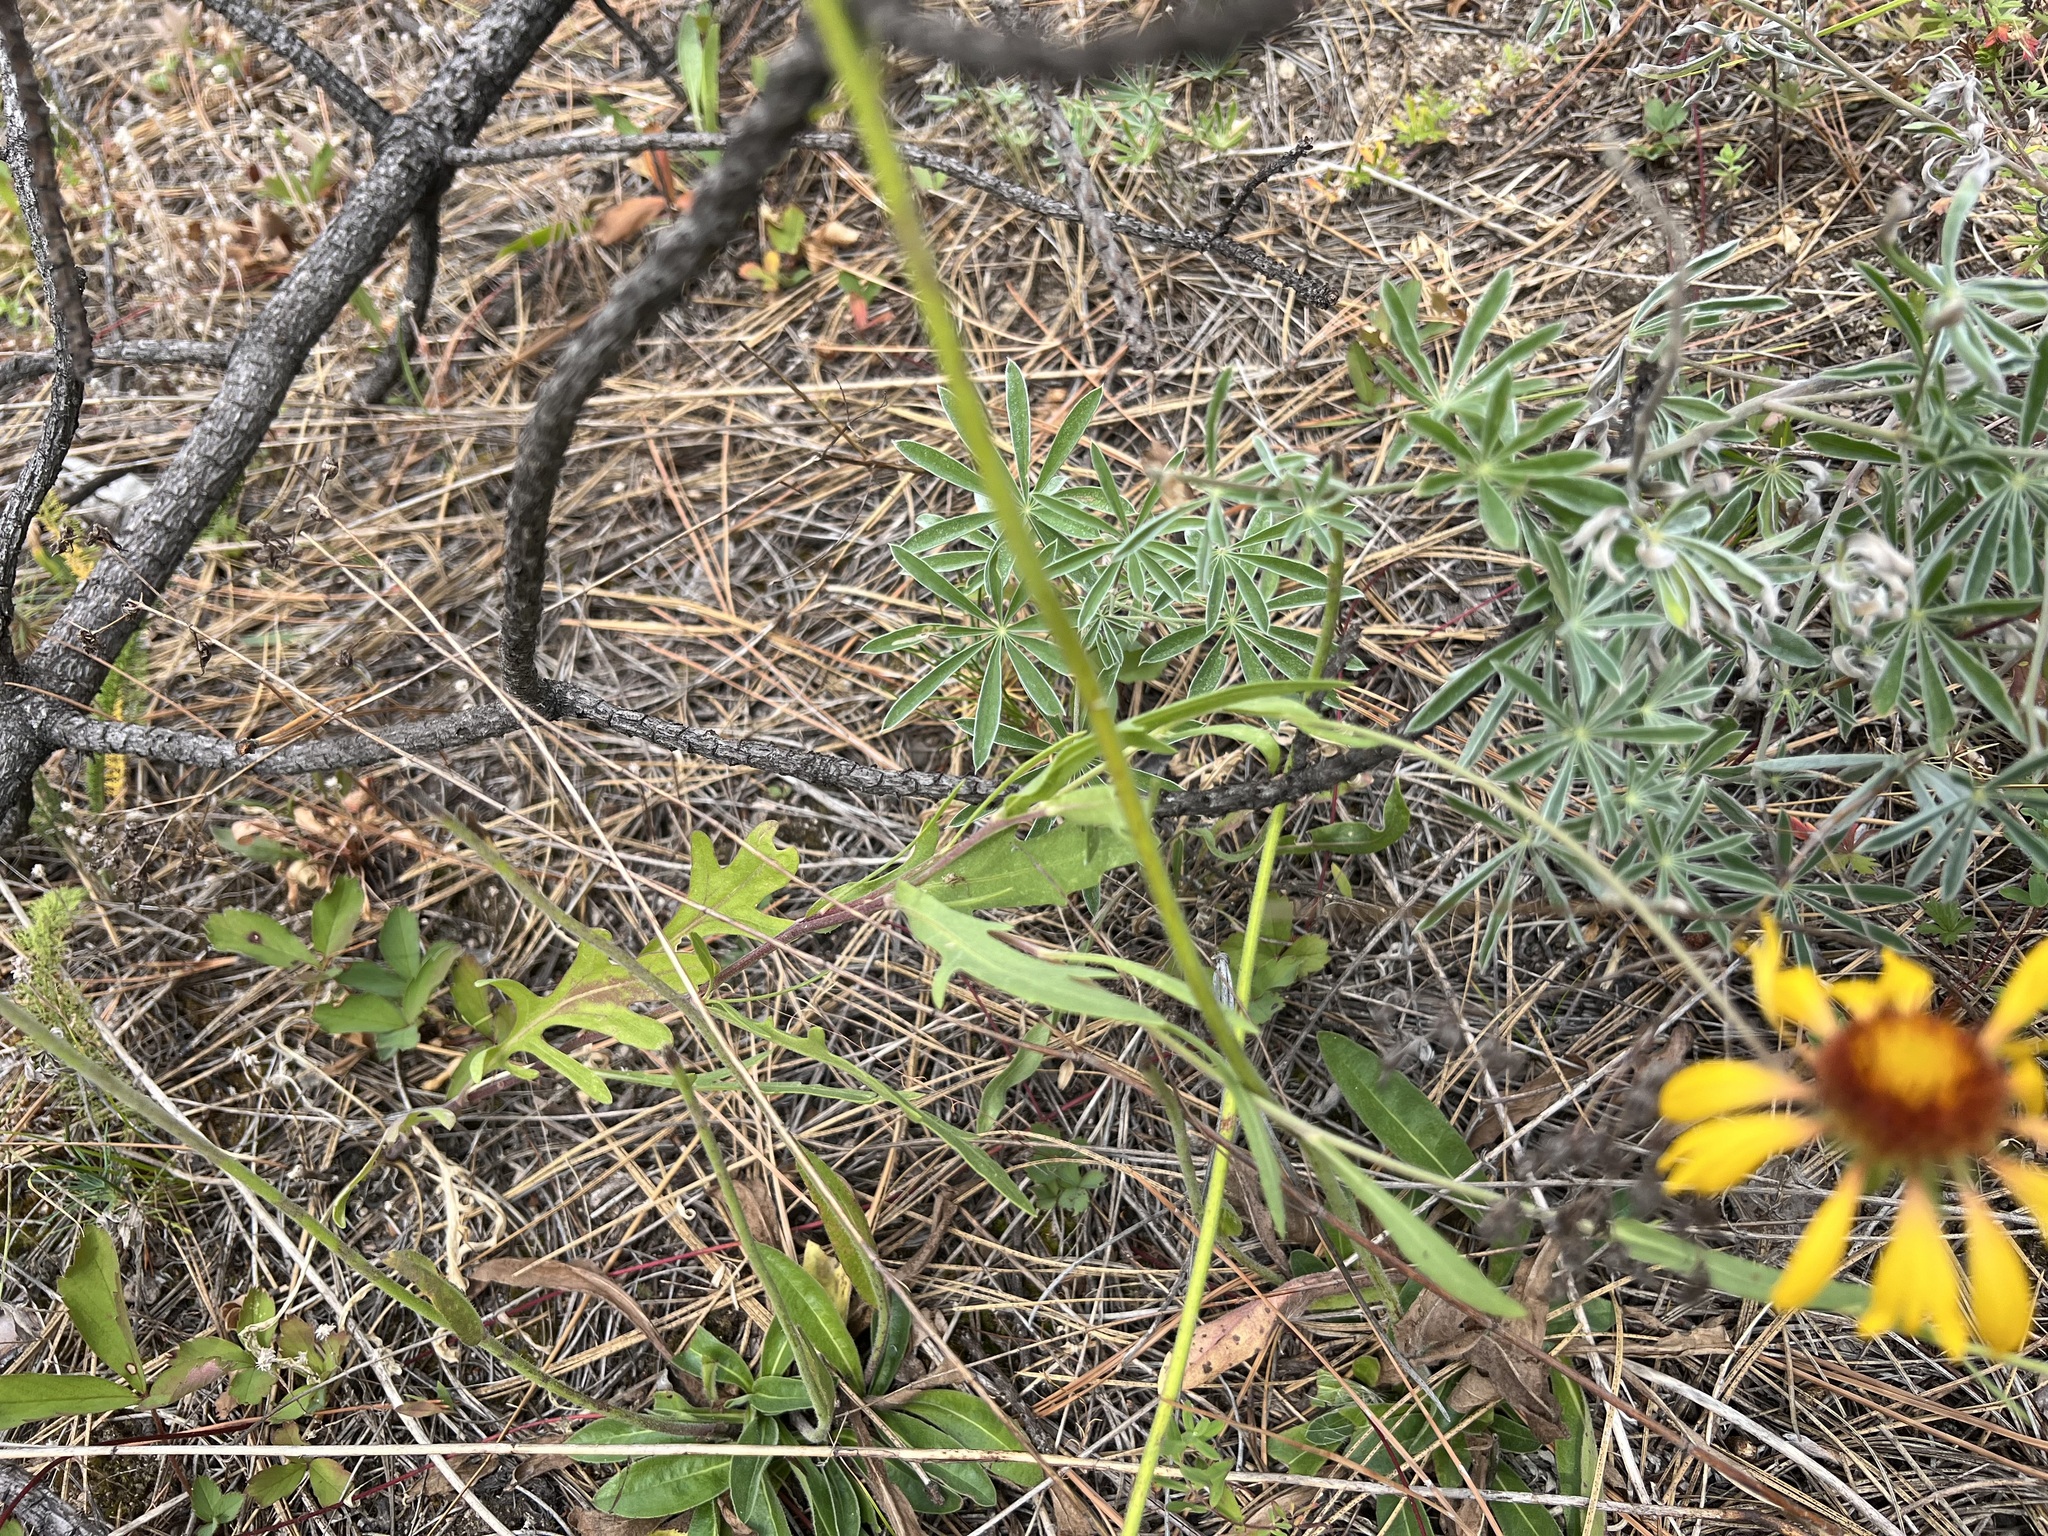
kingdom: Plantae
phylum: Tracheophyta
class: Magnoliopsida
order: Asterales
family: Asteraceae
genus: Gaillardia
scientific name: Gaillardia aristata
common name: Blanket-flower
